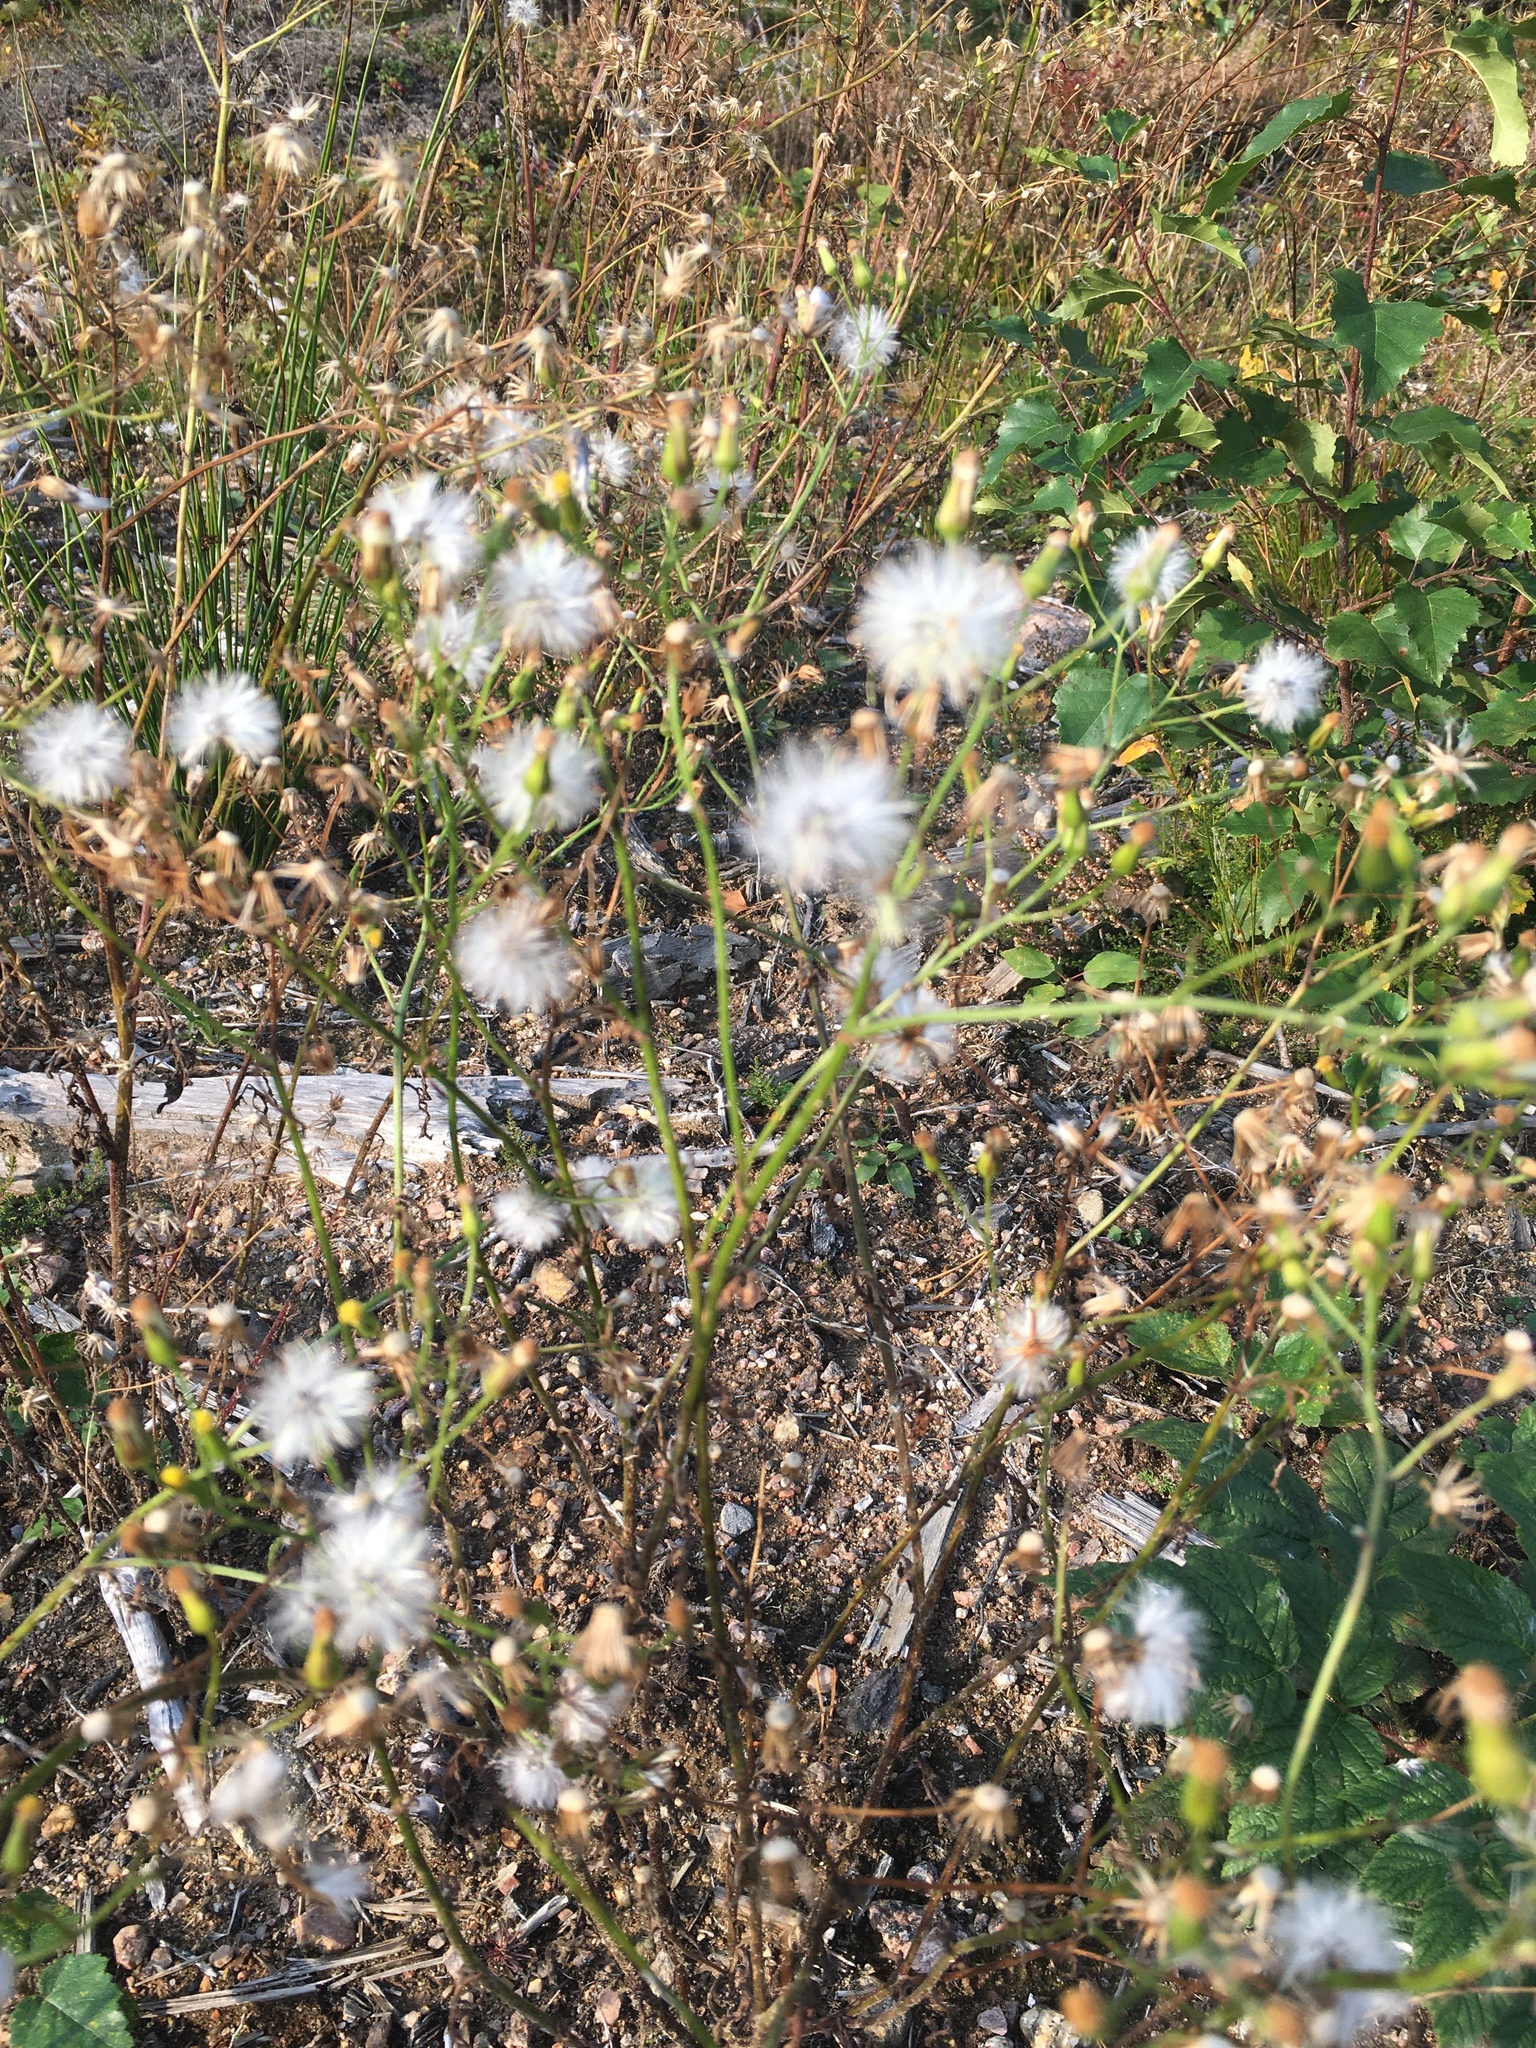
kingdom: Plantae
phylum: Tracheophyta
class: Magnoliopsida
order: Asterales
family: Asteraceae
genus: Senecio
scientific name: Senecio vulgaris
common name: Old-man-in-the-spring
